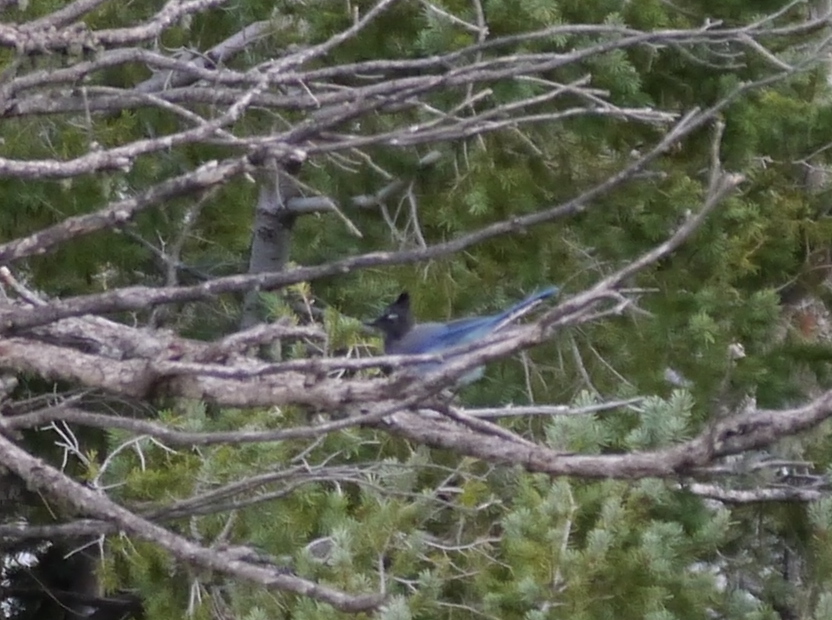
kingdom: Animalia
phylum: Chordata
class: Aves
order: Passeriformes
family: Corvidae
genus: Cyanocitta
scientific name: Cyanocitta stelleri
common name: Steller's jay
